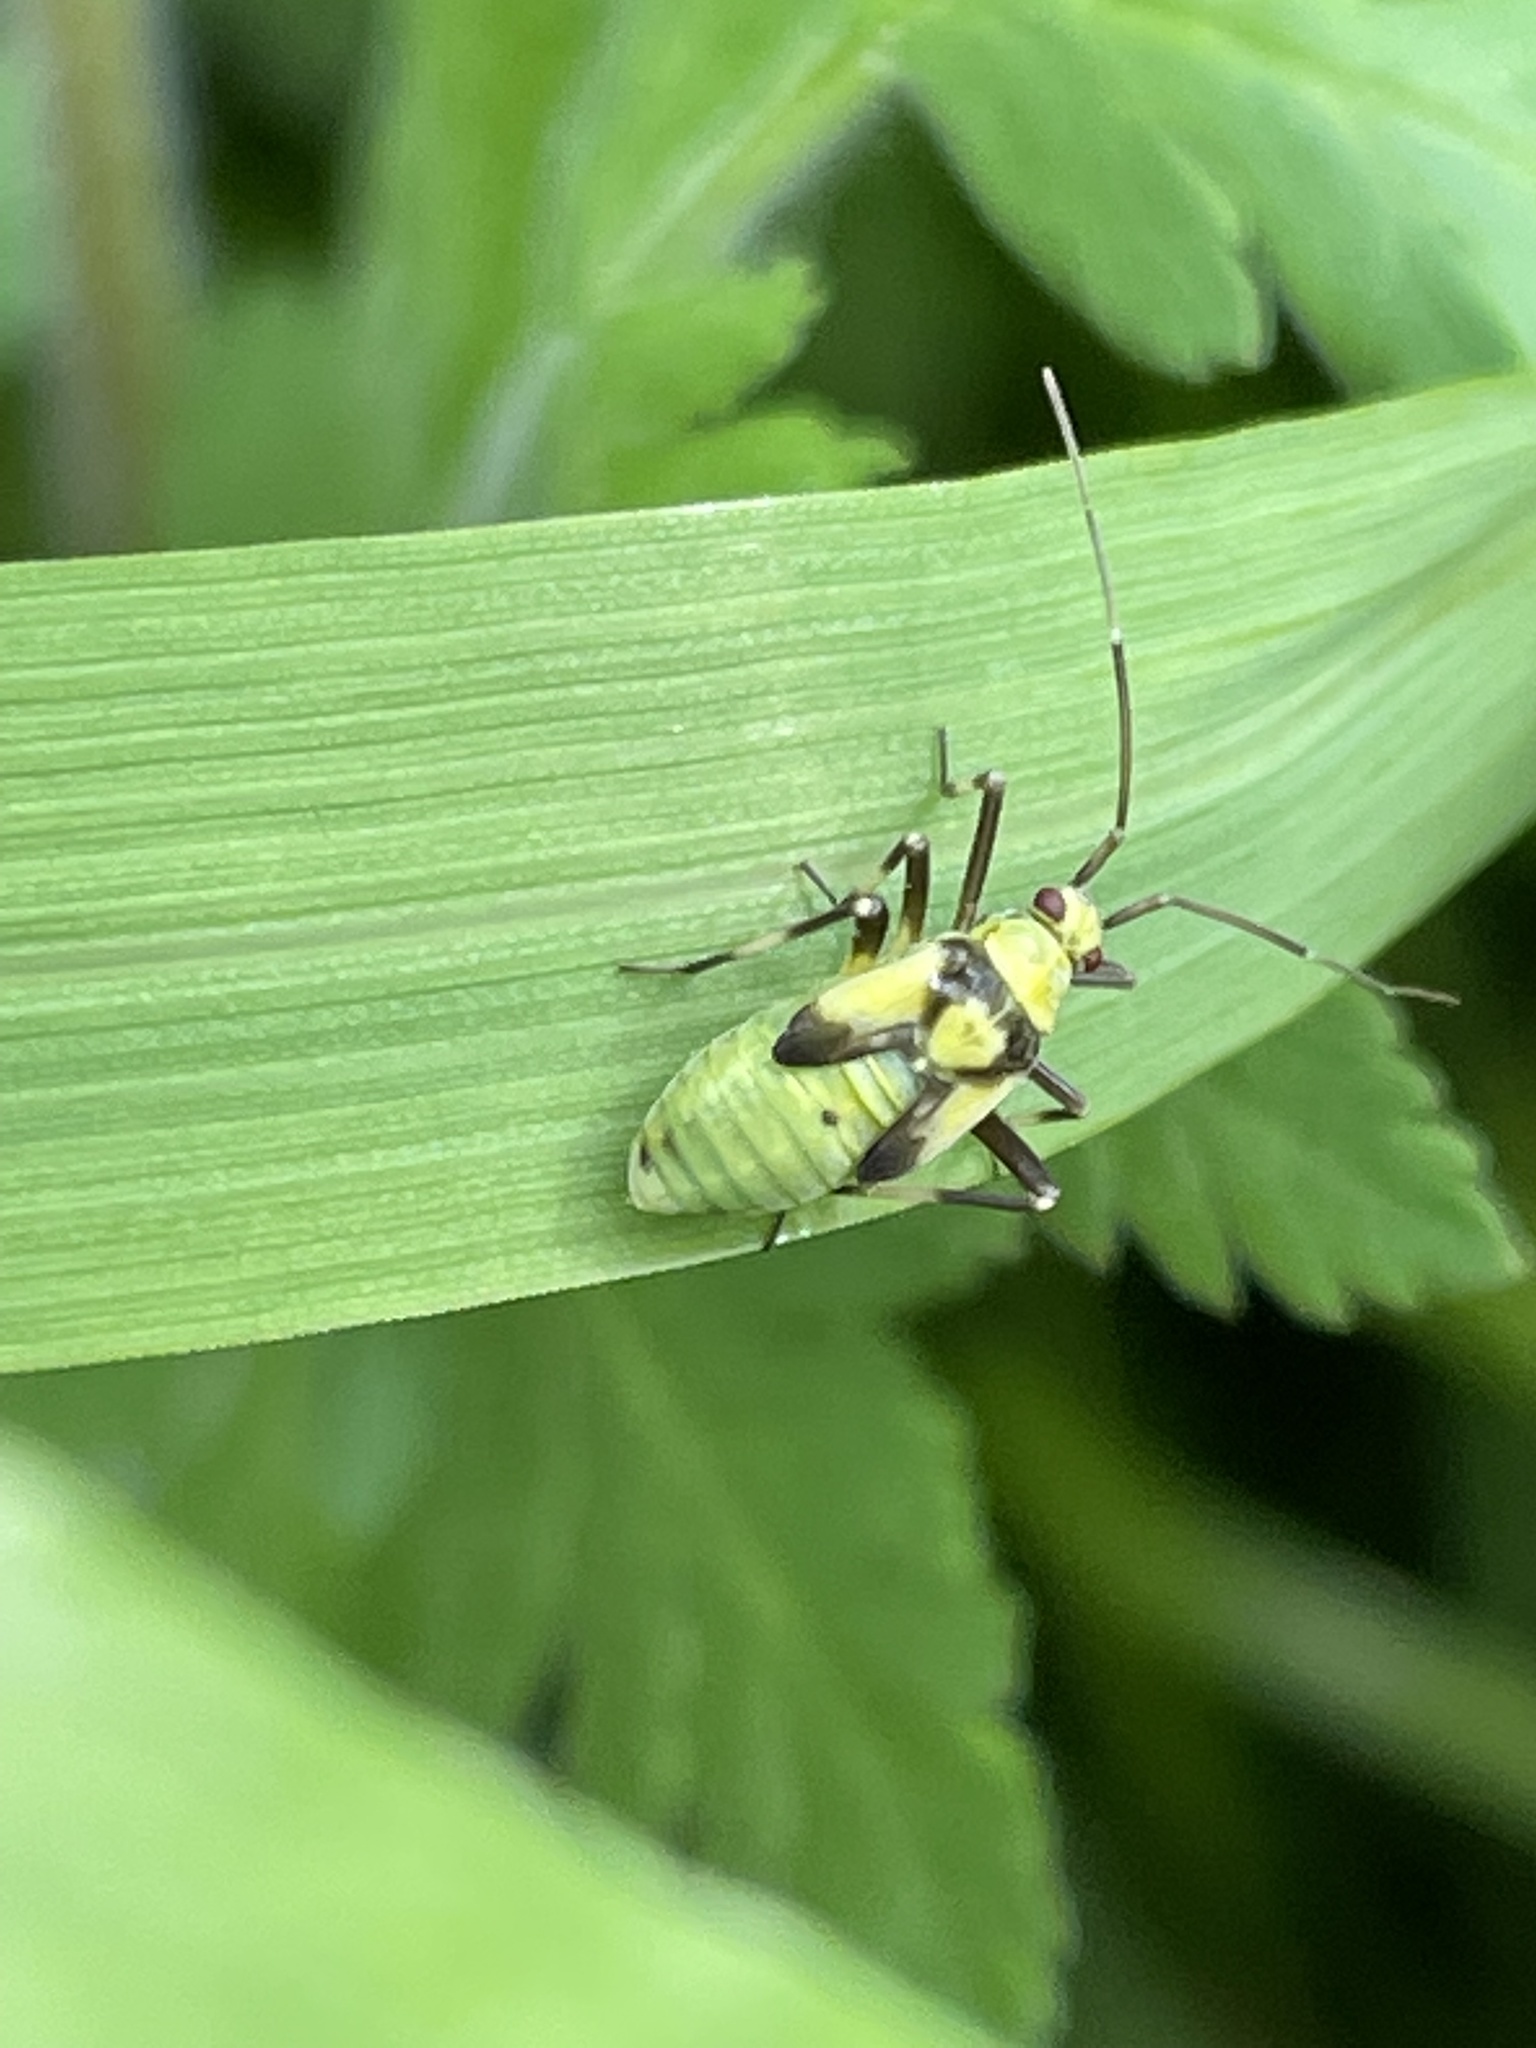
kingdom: Animalia
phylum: Arthropoda
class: Insecta
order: Hemiptera
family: Miridae
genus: Calocoris
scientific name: Calocoris alpestris
